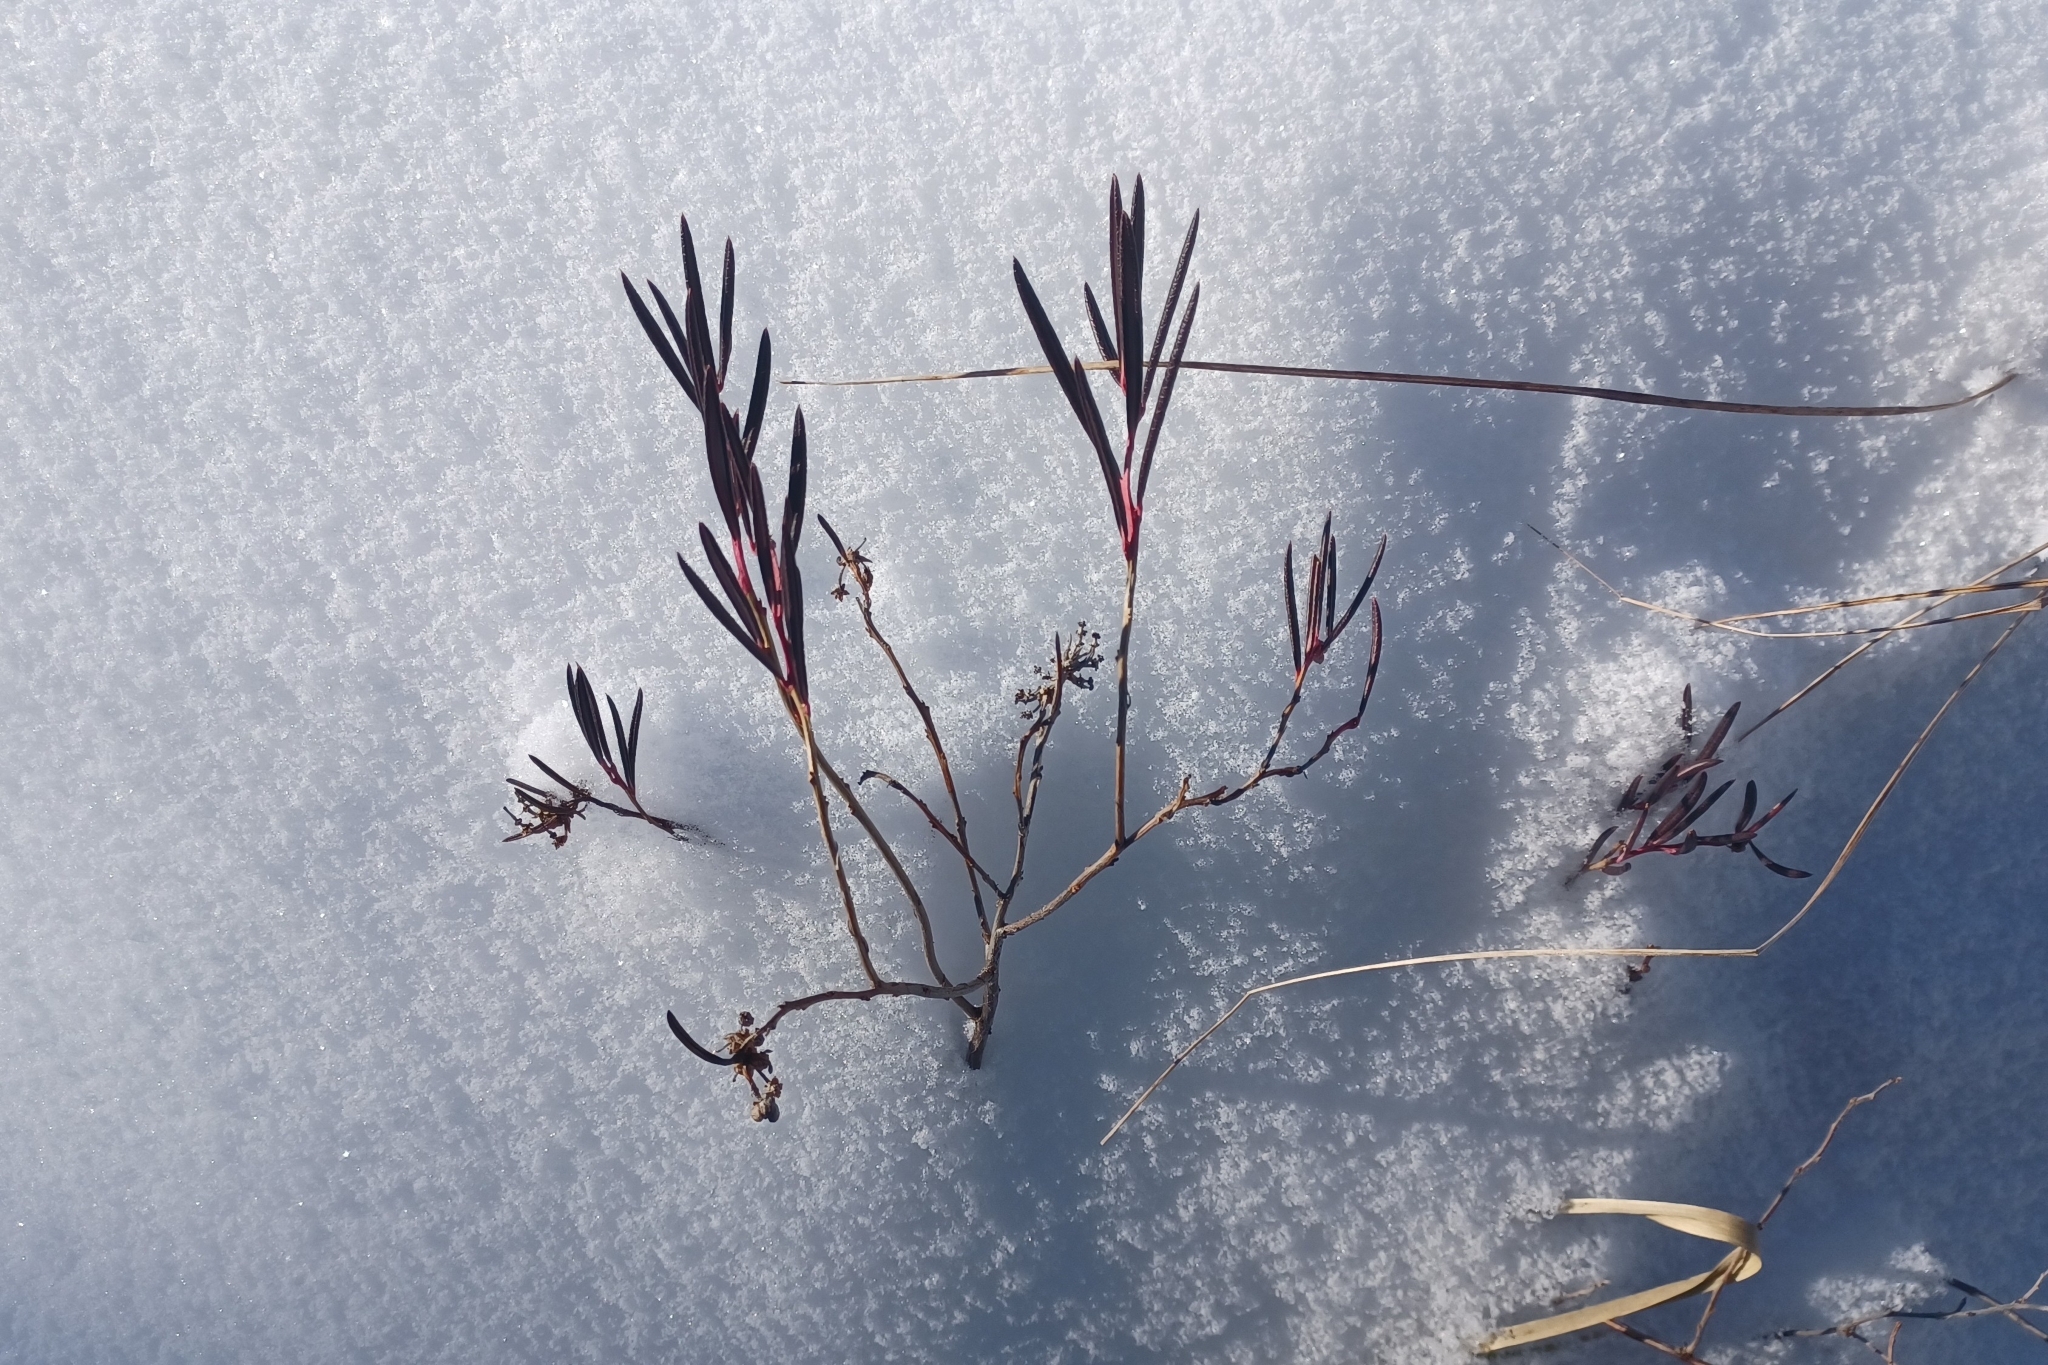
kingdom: Plantae
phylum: Tracheophyta
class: Magnoliopsida
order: Ericales
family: Ericaceae
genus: Andromeda
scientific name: Andromeda polifolia
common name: Bog-rosemary
